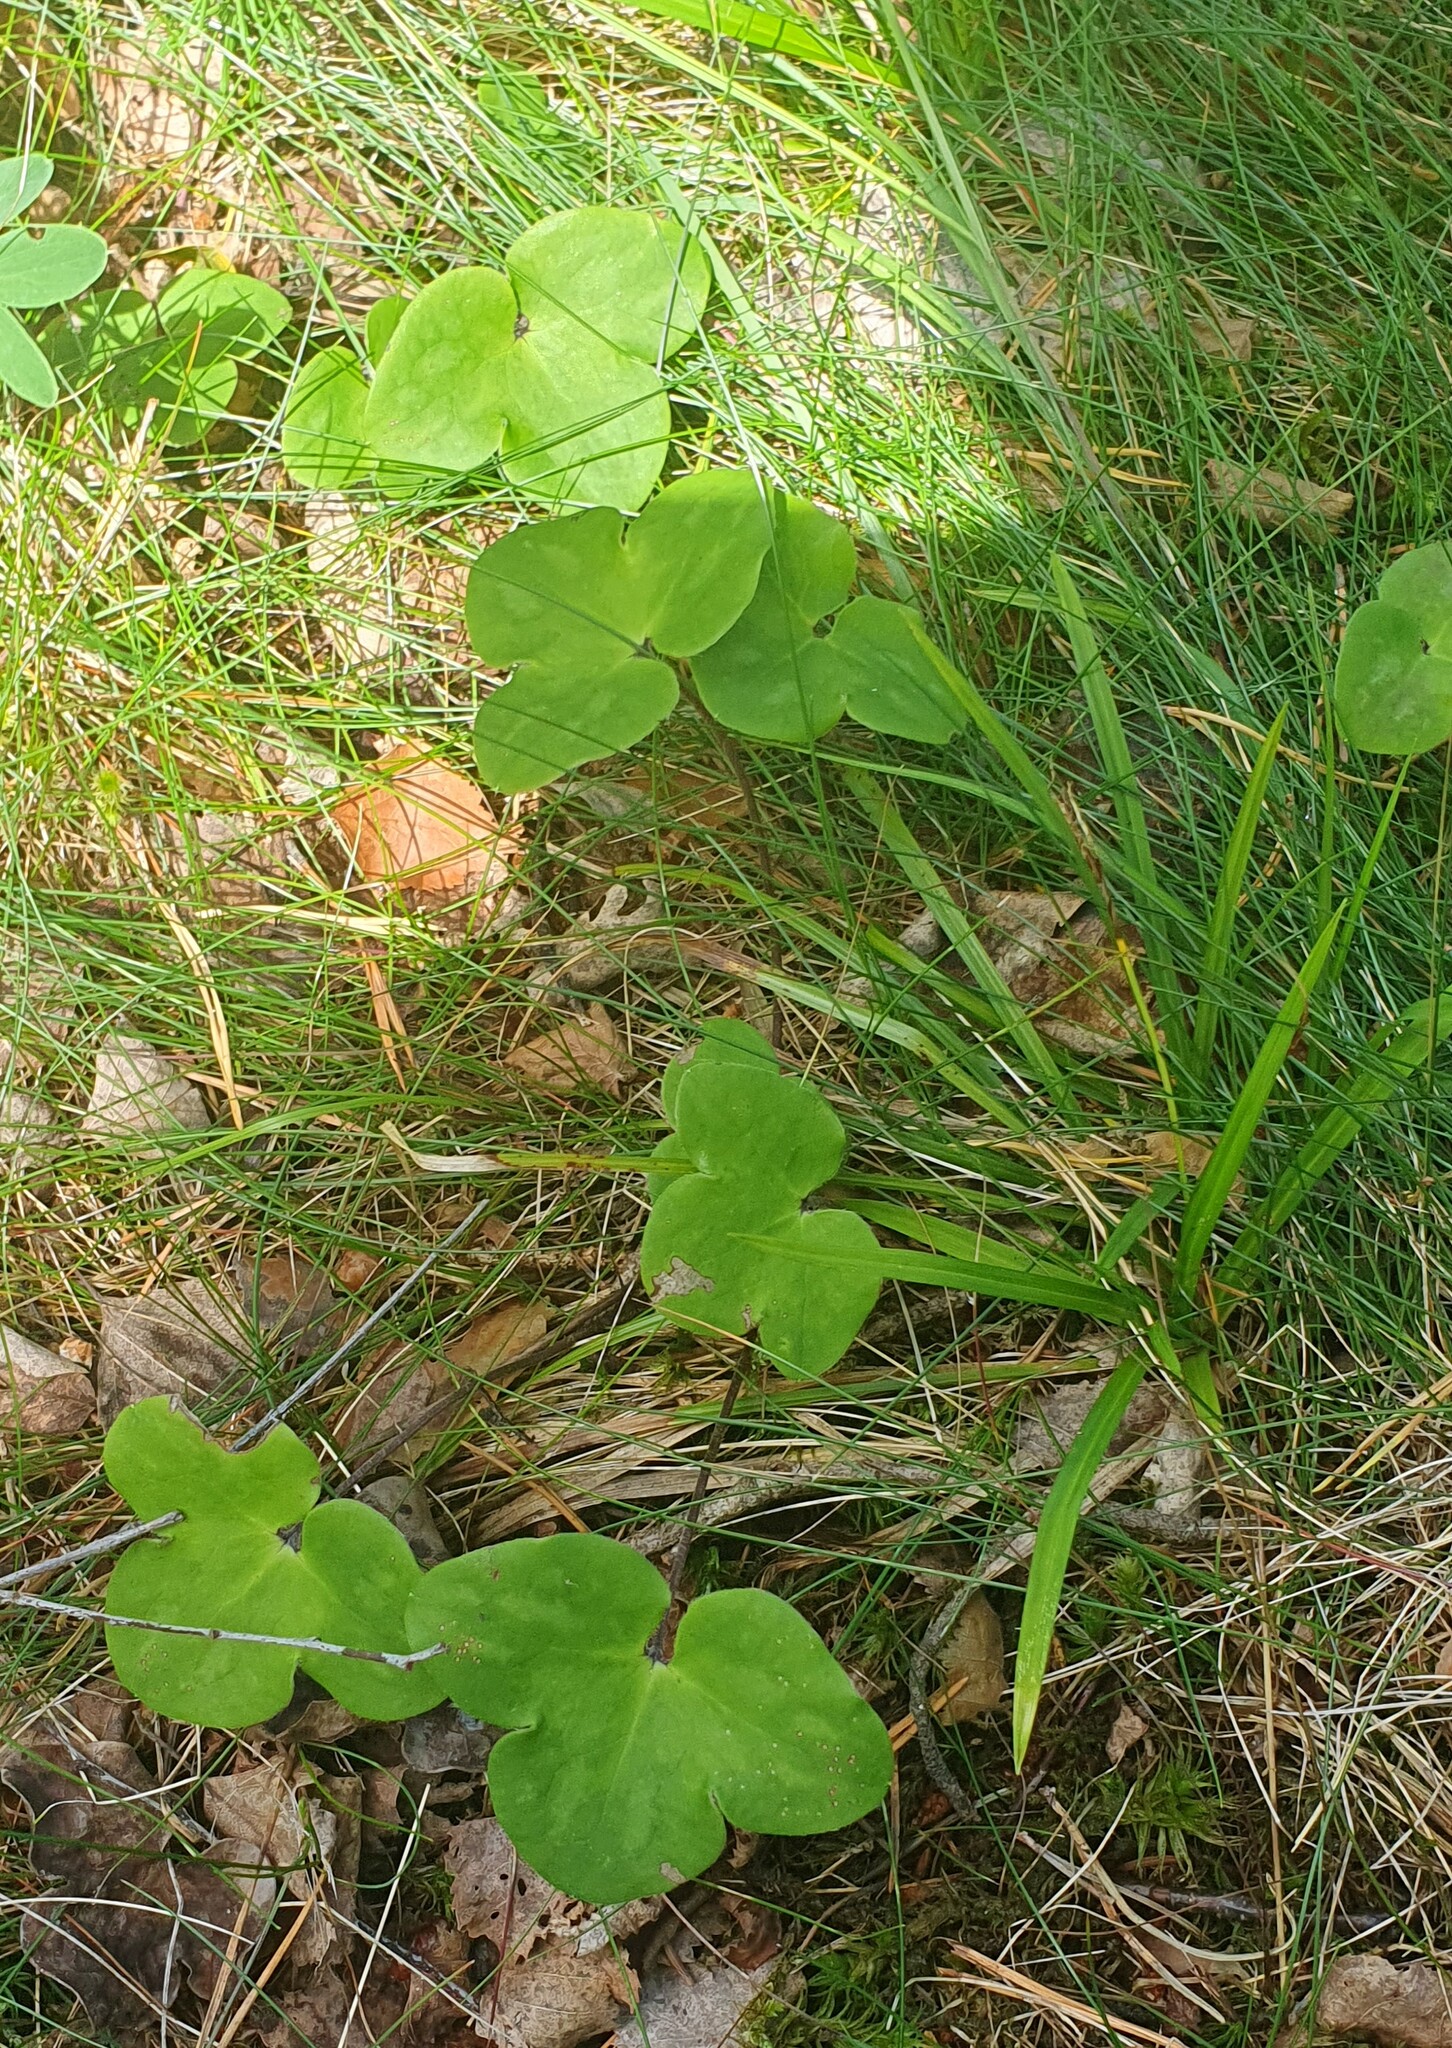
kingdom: Plantae
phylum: Tracheophyta
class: Magnoliopsida
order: Ranunculales
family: Ranunculaceae
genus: Hepatica
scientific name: Hepatica nobilis
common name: Liverleaf
